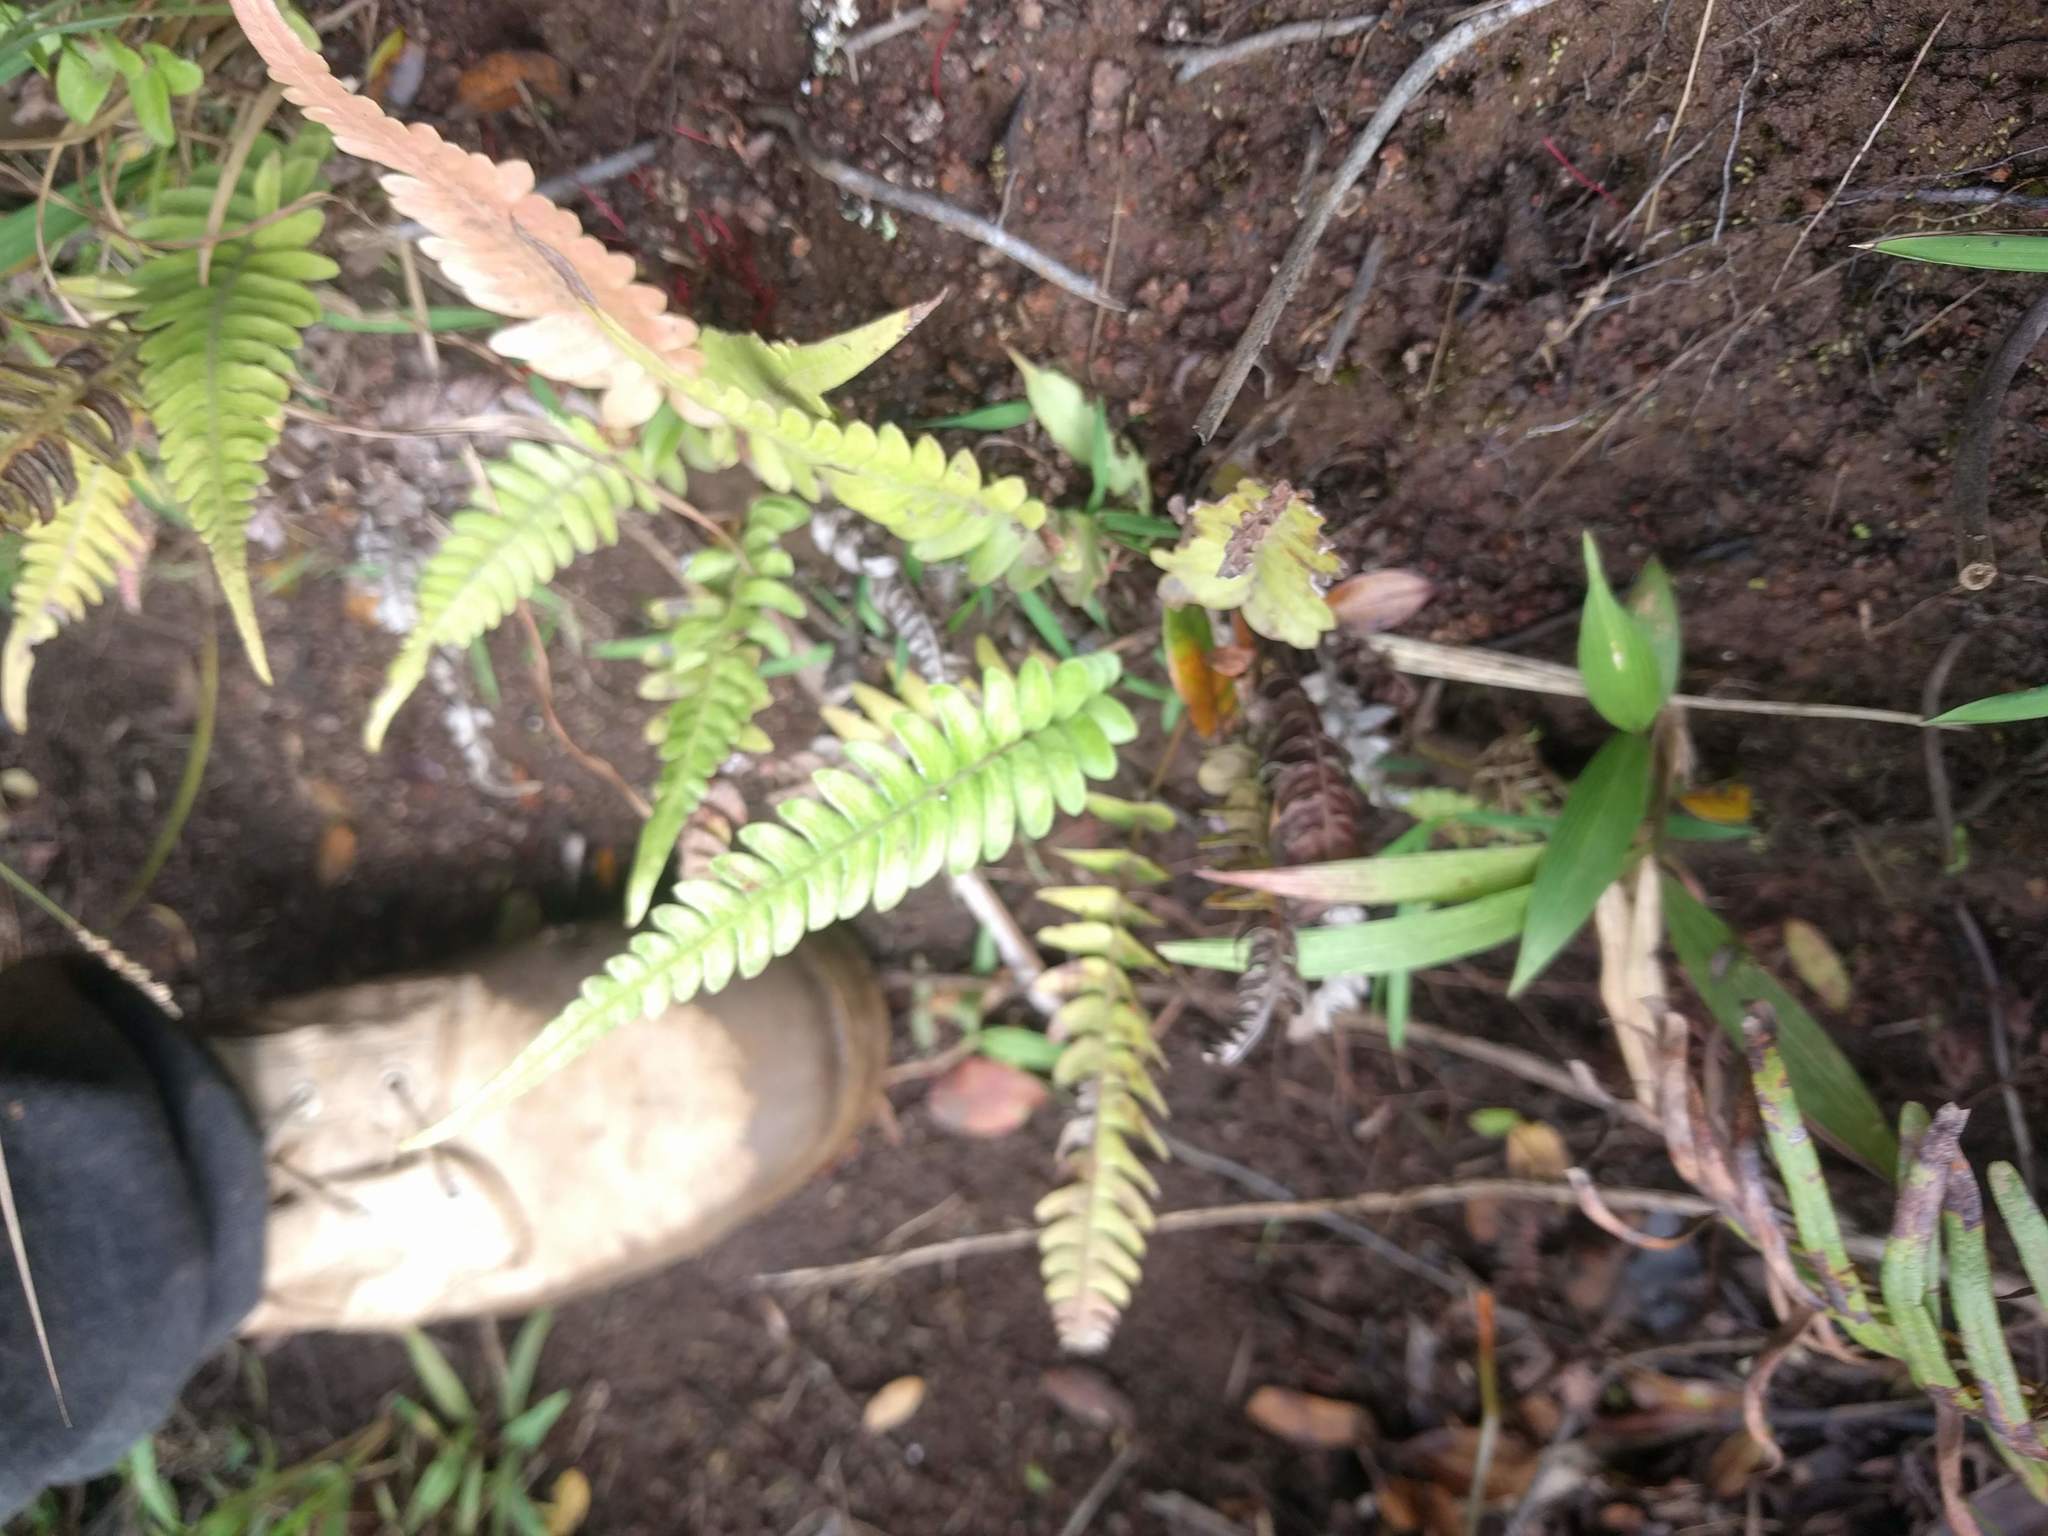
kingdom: Plantae
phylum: Tracheophyta
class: Polypodiopsida
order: Polypodiales
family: Blechnaceae
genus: Blechnum
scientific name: Blechnum appendiculatum
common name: Palm fern
